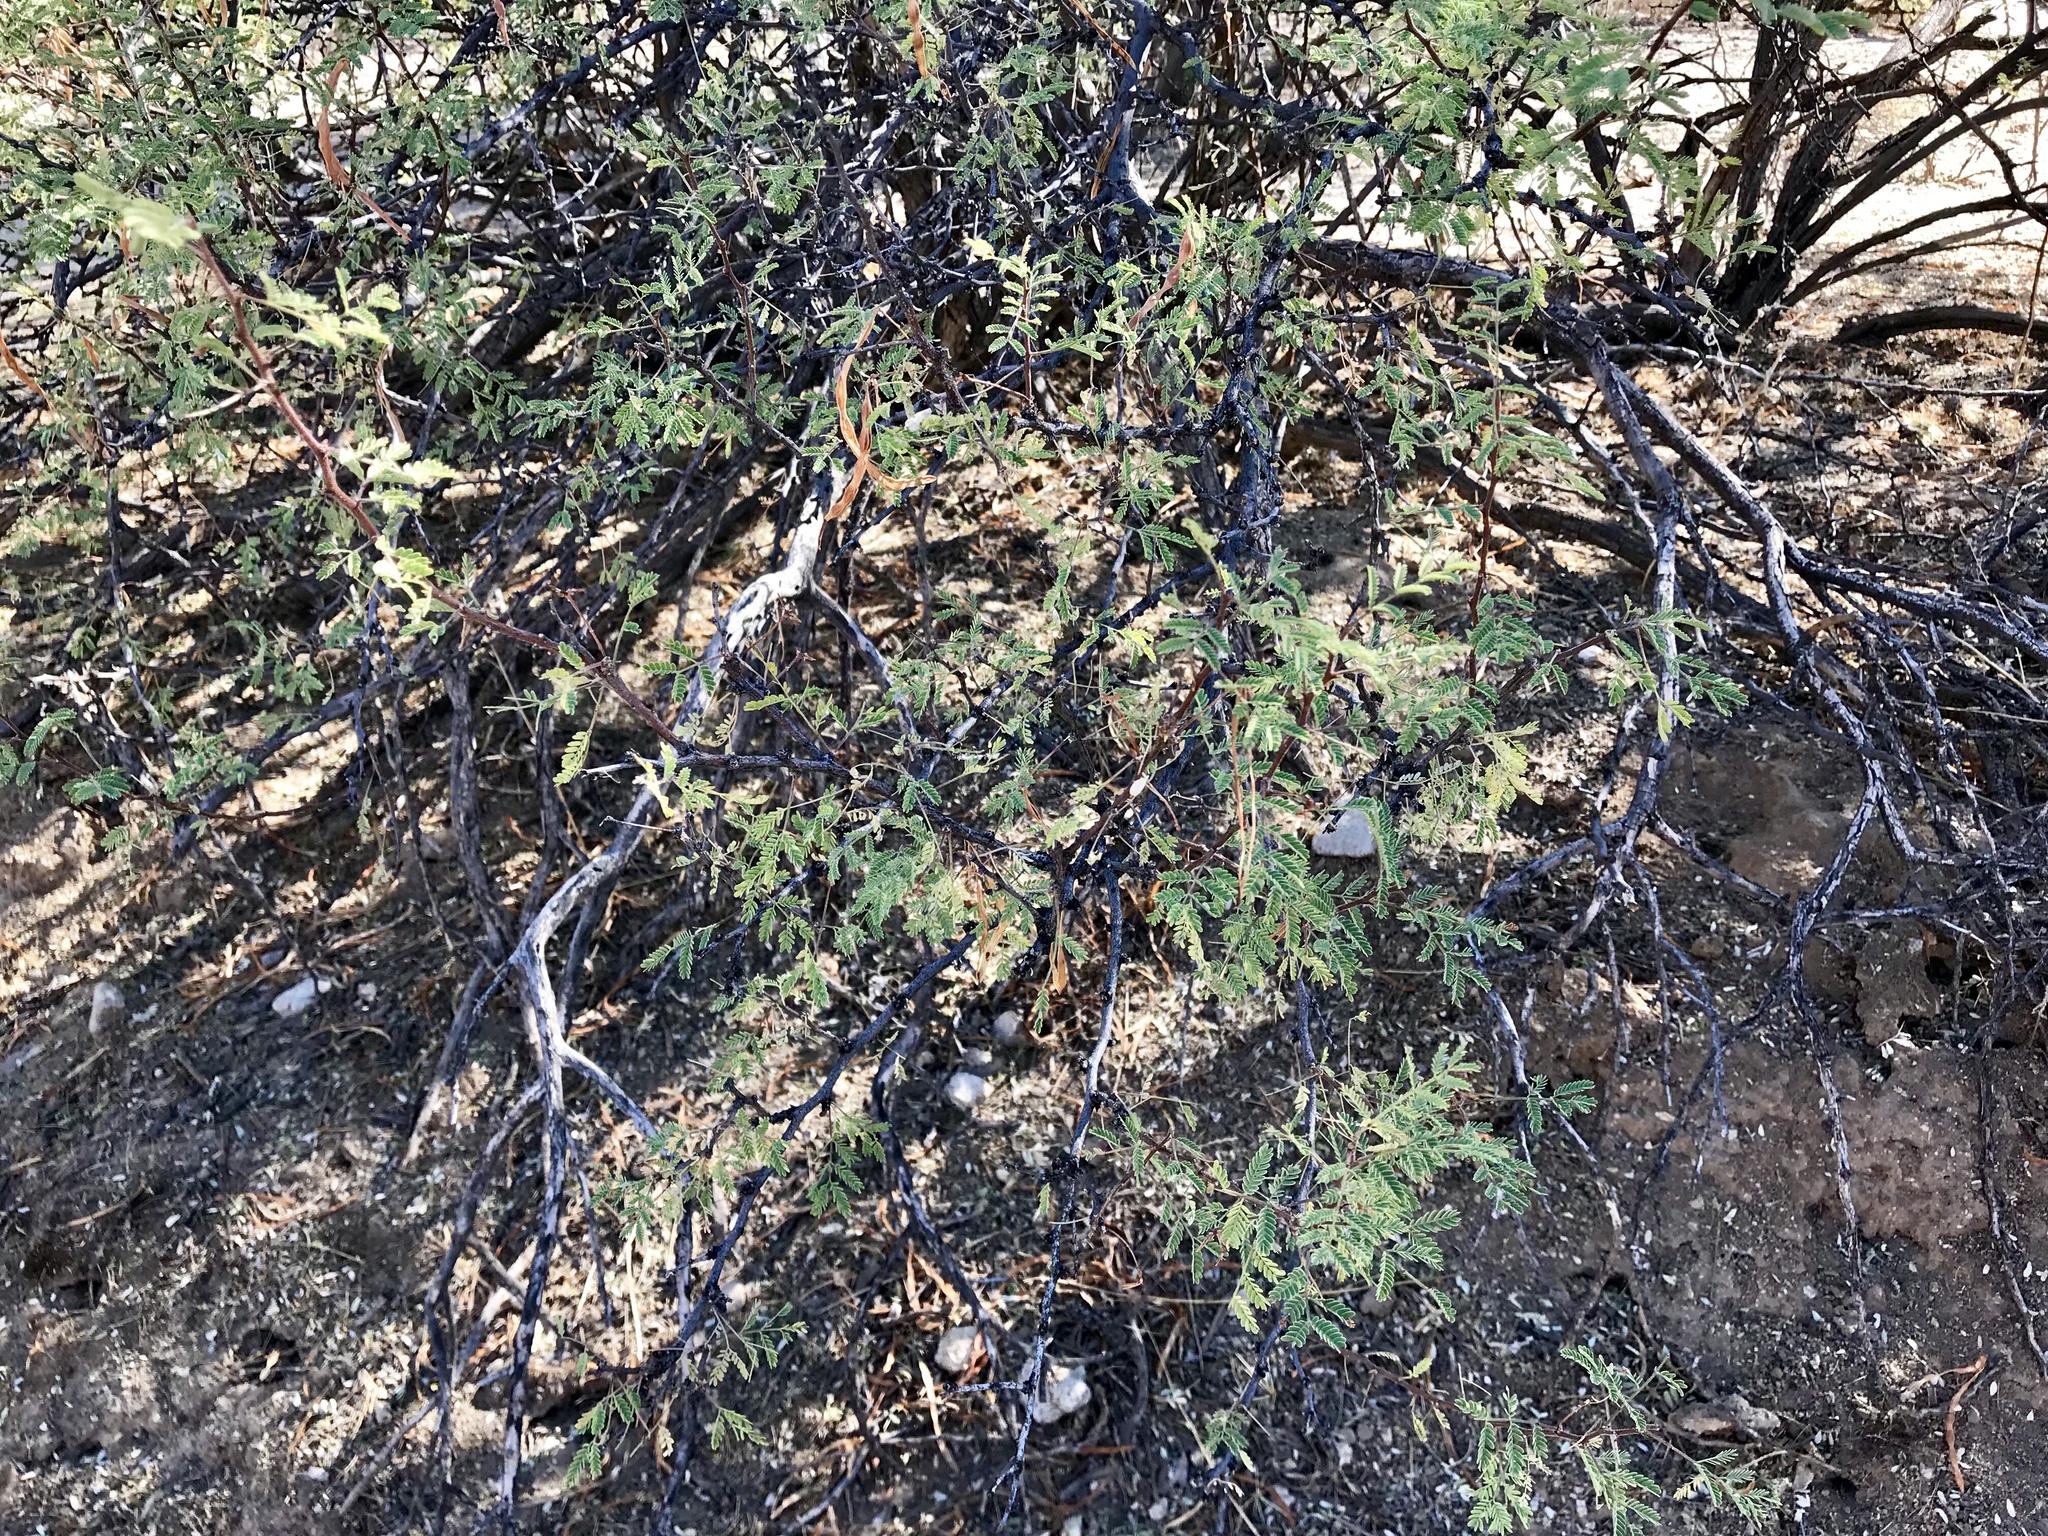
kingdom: Plantae
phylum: Tracheophyta
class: Magnoliopsida
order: Fabales
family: Fabaceae
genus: Vachellia
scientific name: Vachellia constricta
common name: Mescat acacia
